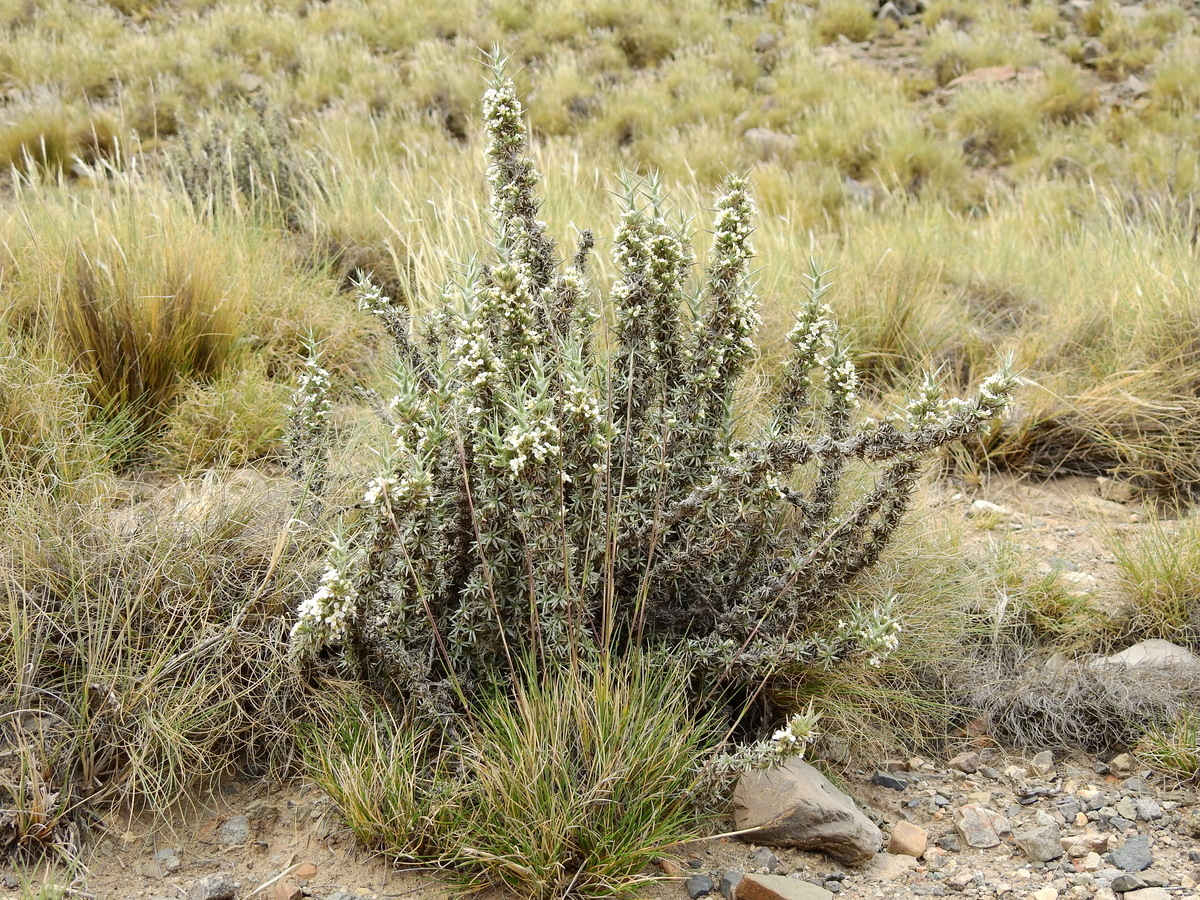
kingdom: Plantae
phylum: Tracheophyta
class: Magnoliopsida
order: Asterales
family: Asteraceae
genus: Nassauvia
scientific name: Nassauvia axillaris
